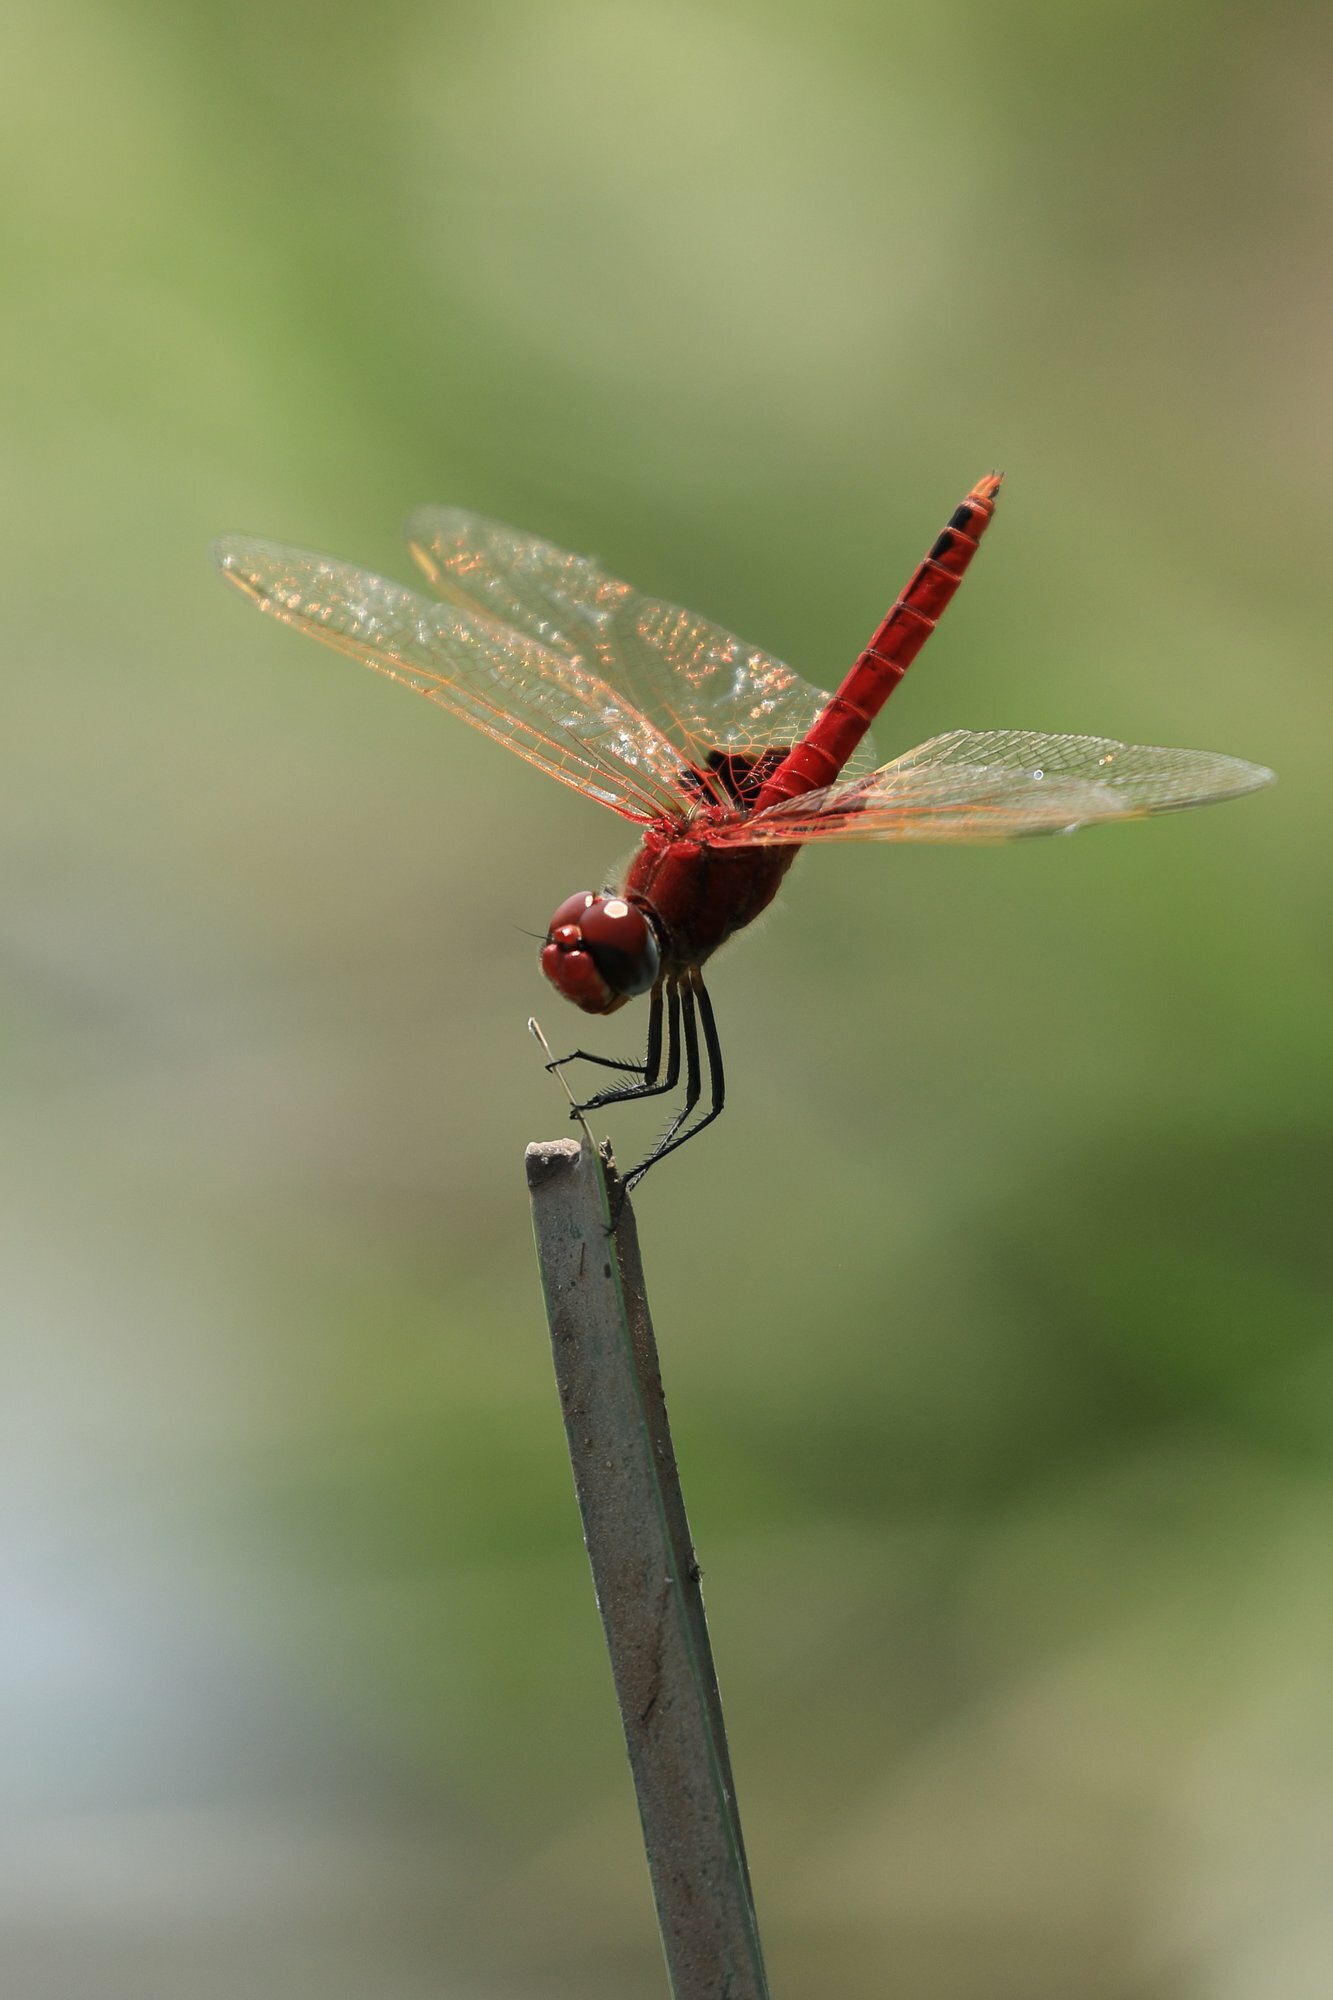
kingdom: Animalia
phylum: Arthropoda
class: Insecta
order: Odonata
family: Libellulidae
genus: Urothemis
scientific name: Urothemis assignata
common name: Red basker
